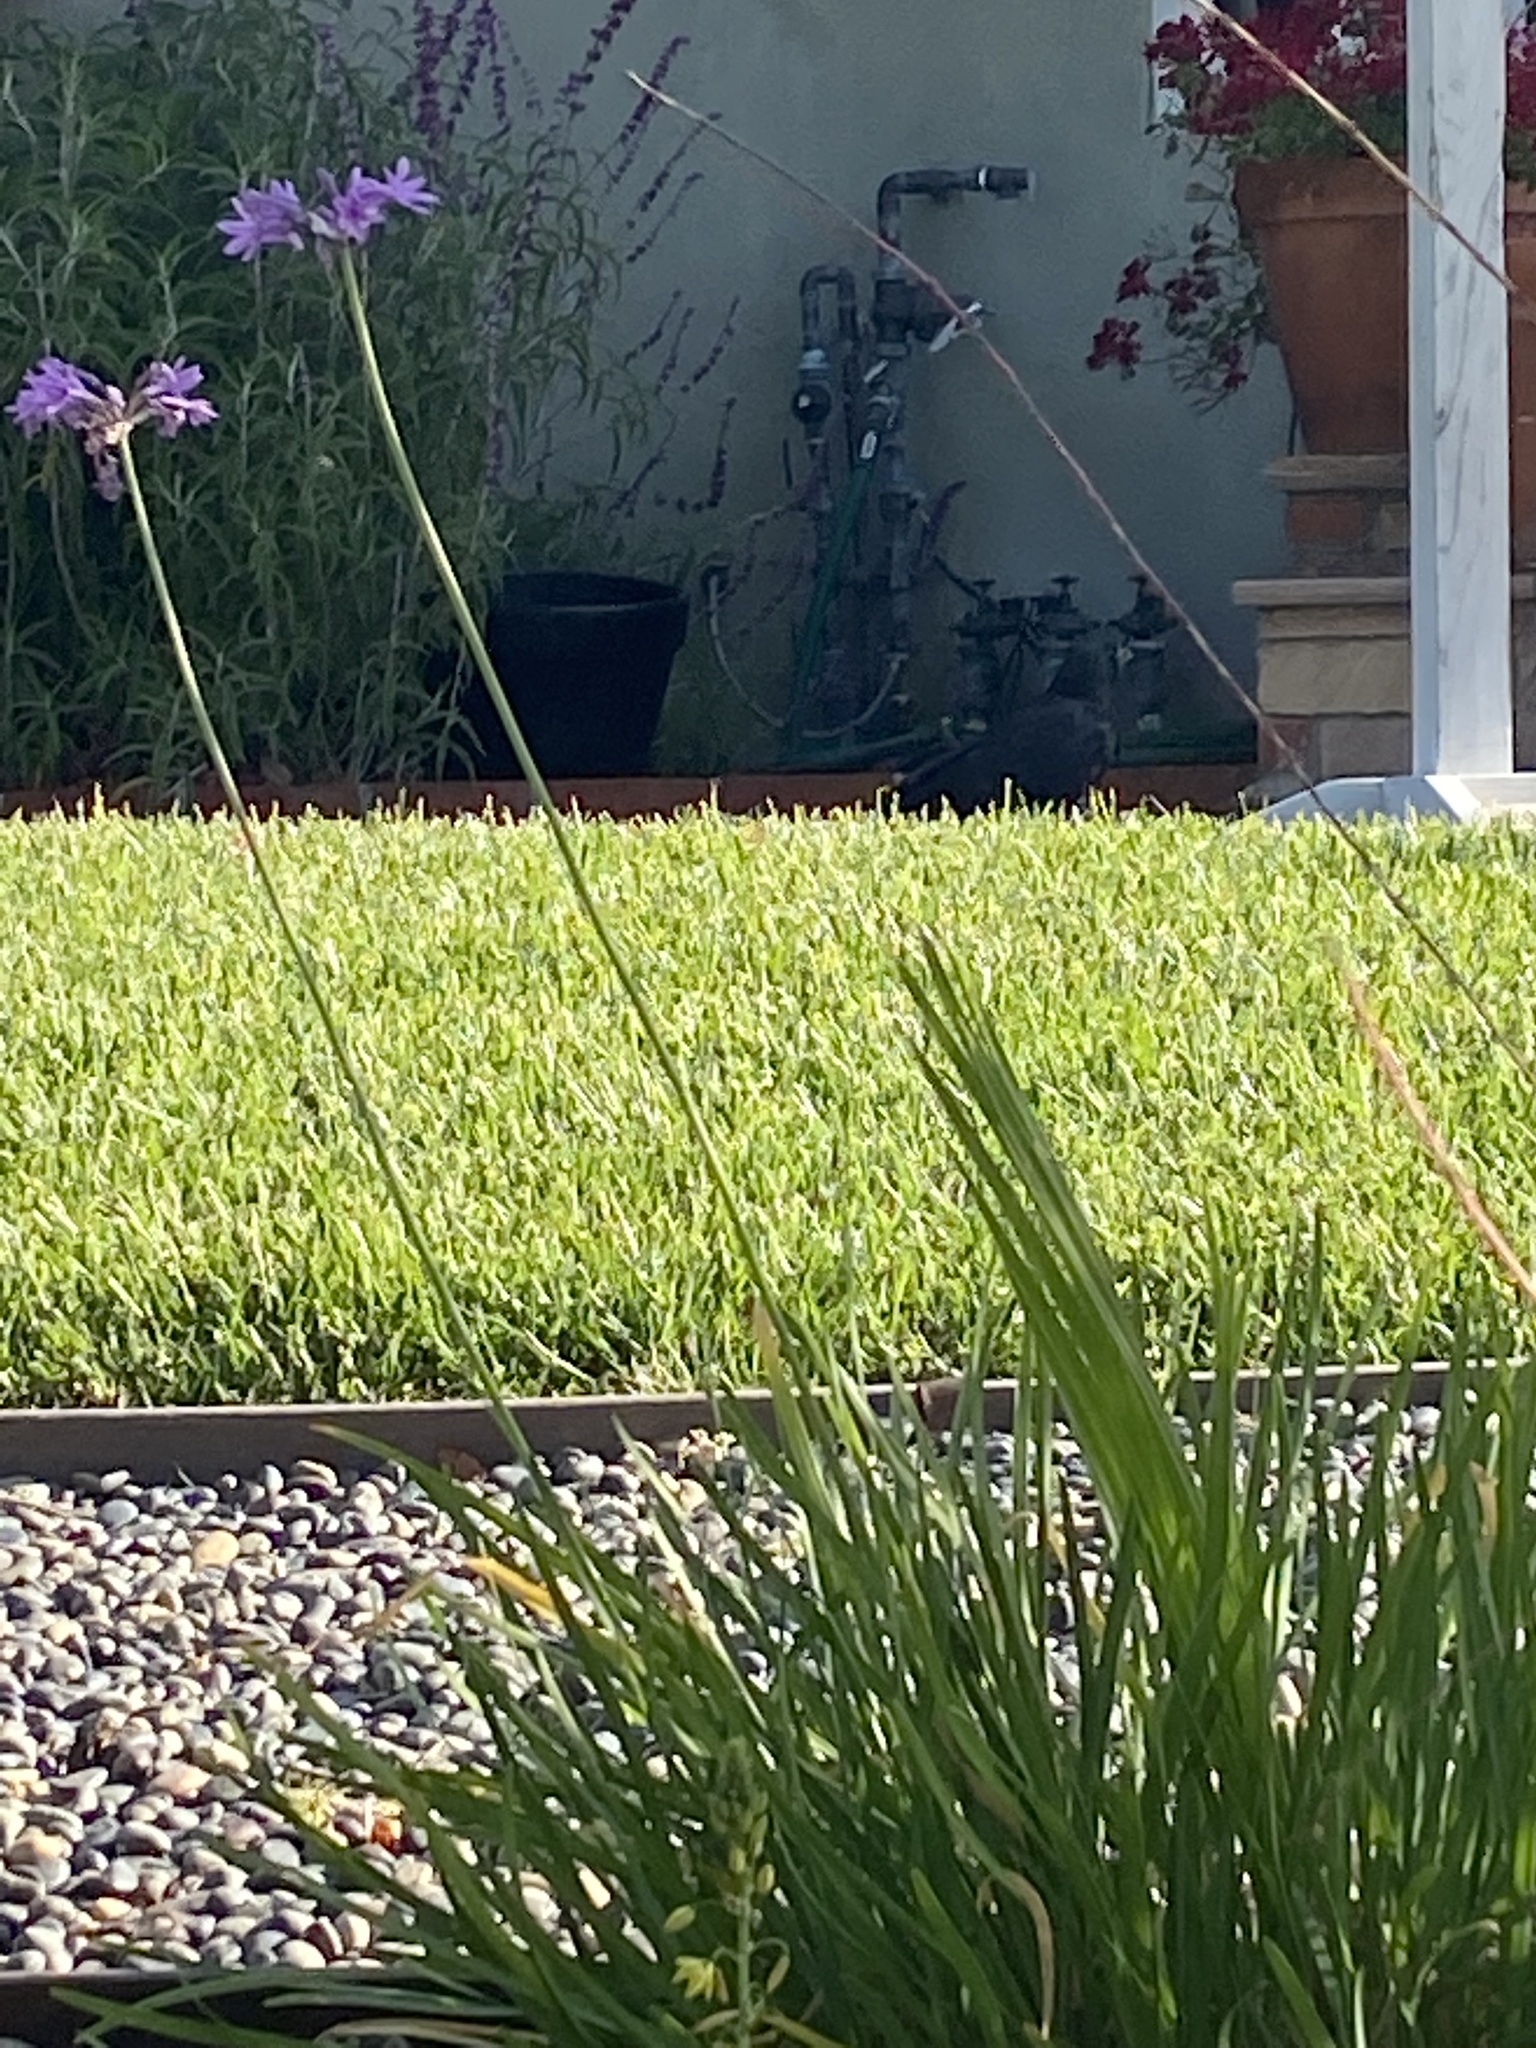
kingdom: Animalia
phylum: Chordata
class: Aves
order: Passeriformes
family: Corvidae
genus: Corvus
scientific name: Corvus
